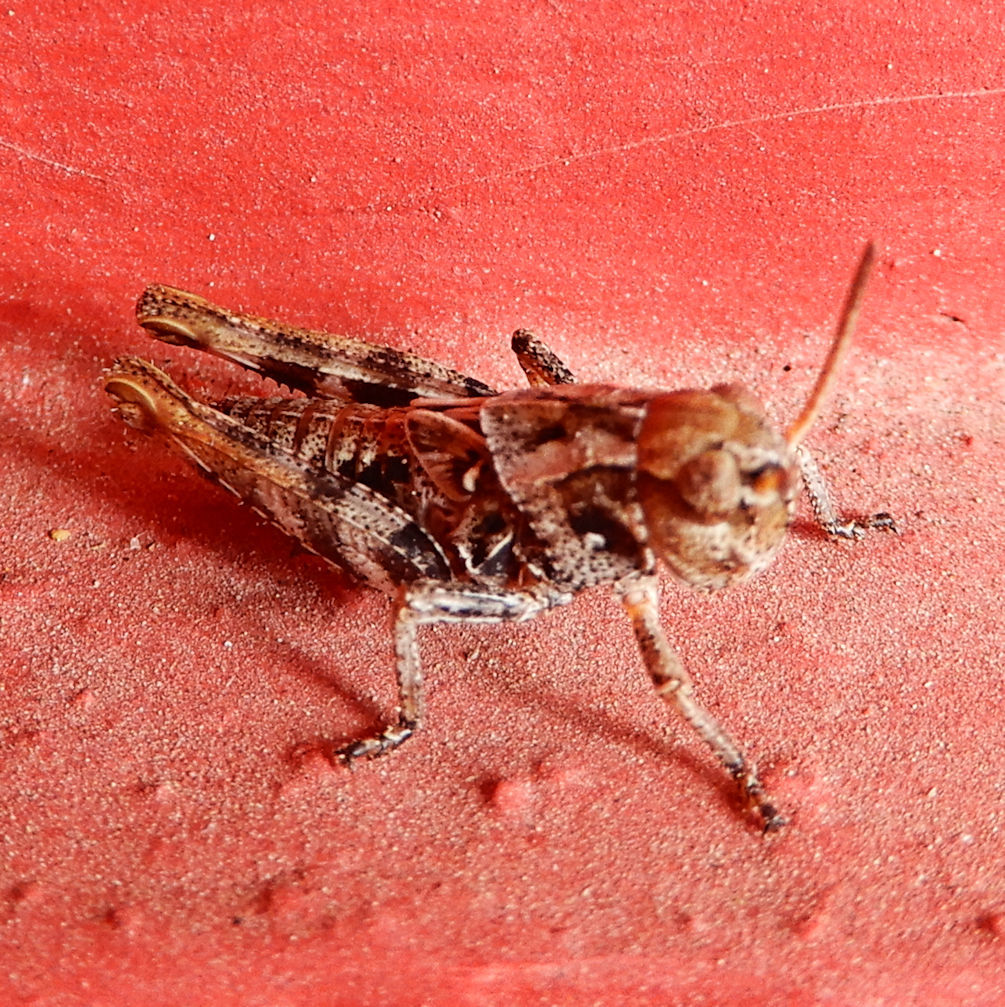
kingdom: Animalia
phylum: Arthropoda
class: Insecta
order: Orthoptera
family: Acrididae
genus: Camnula
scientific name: Camnula pellucida
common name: Clear-winged grasshopper
